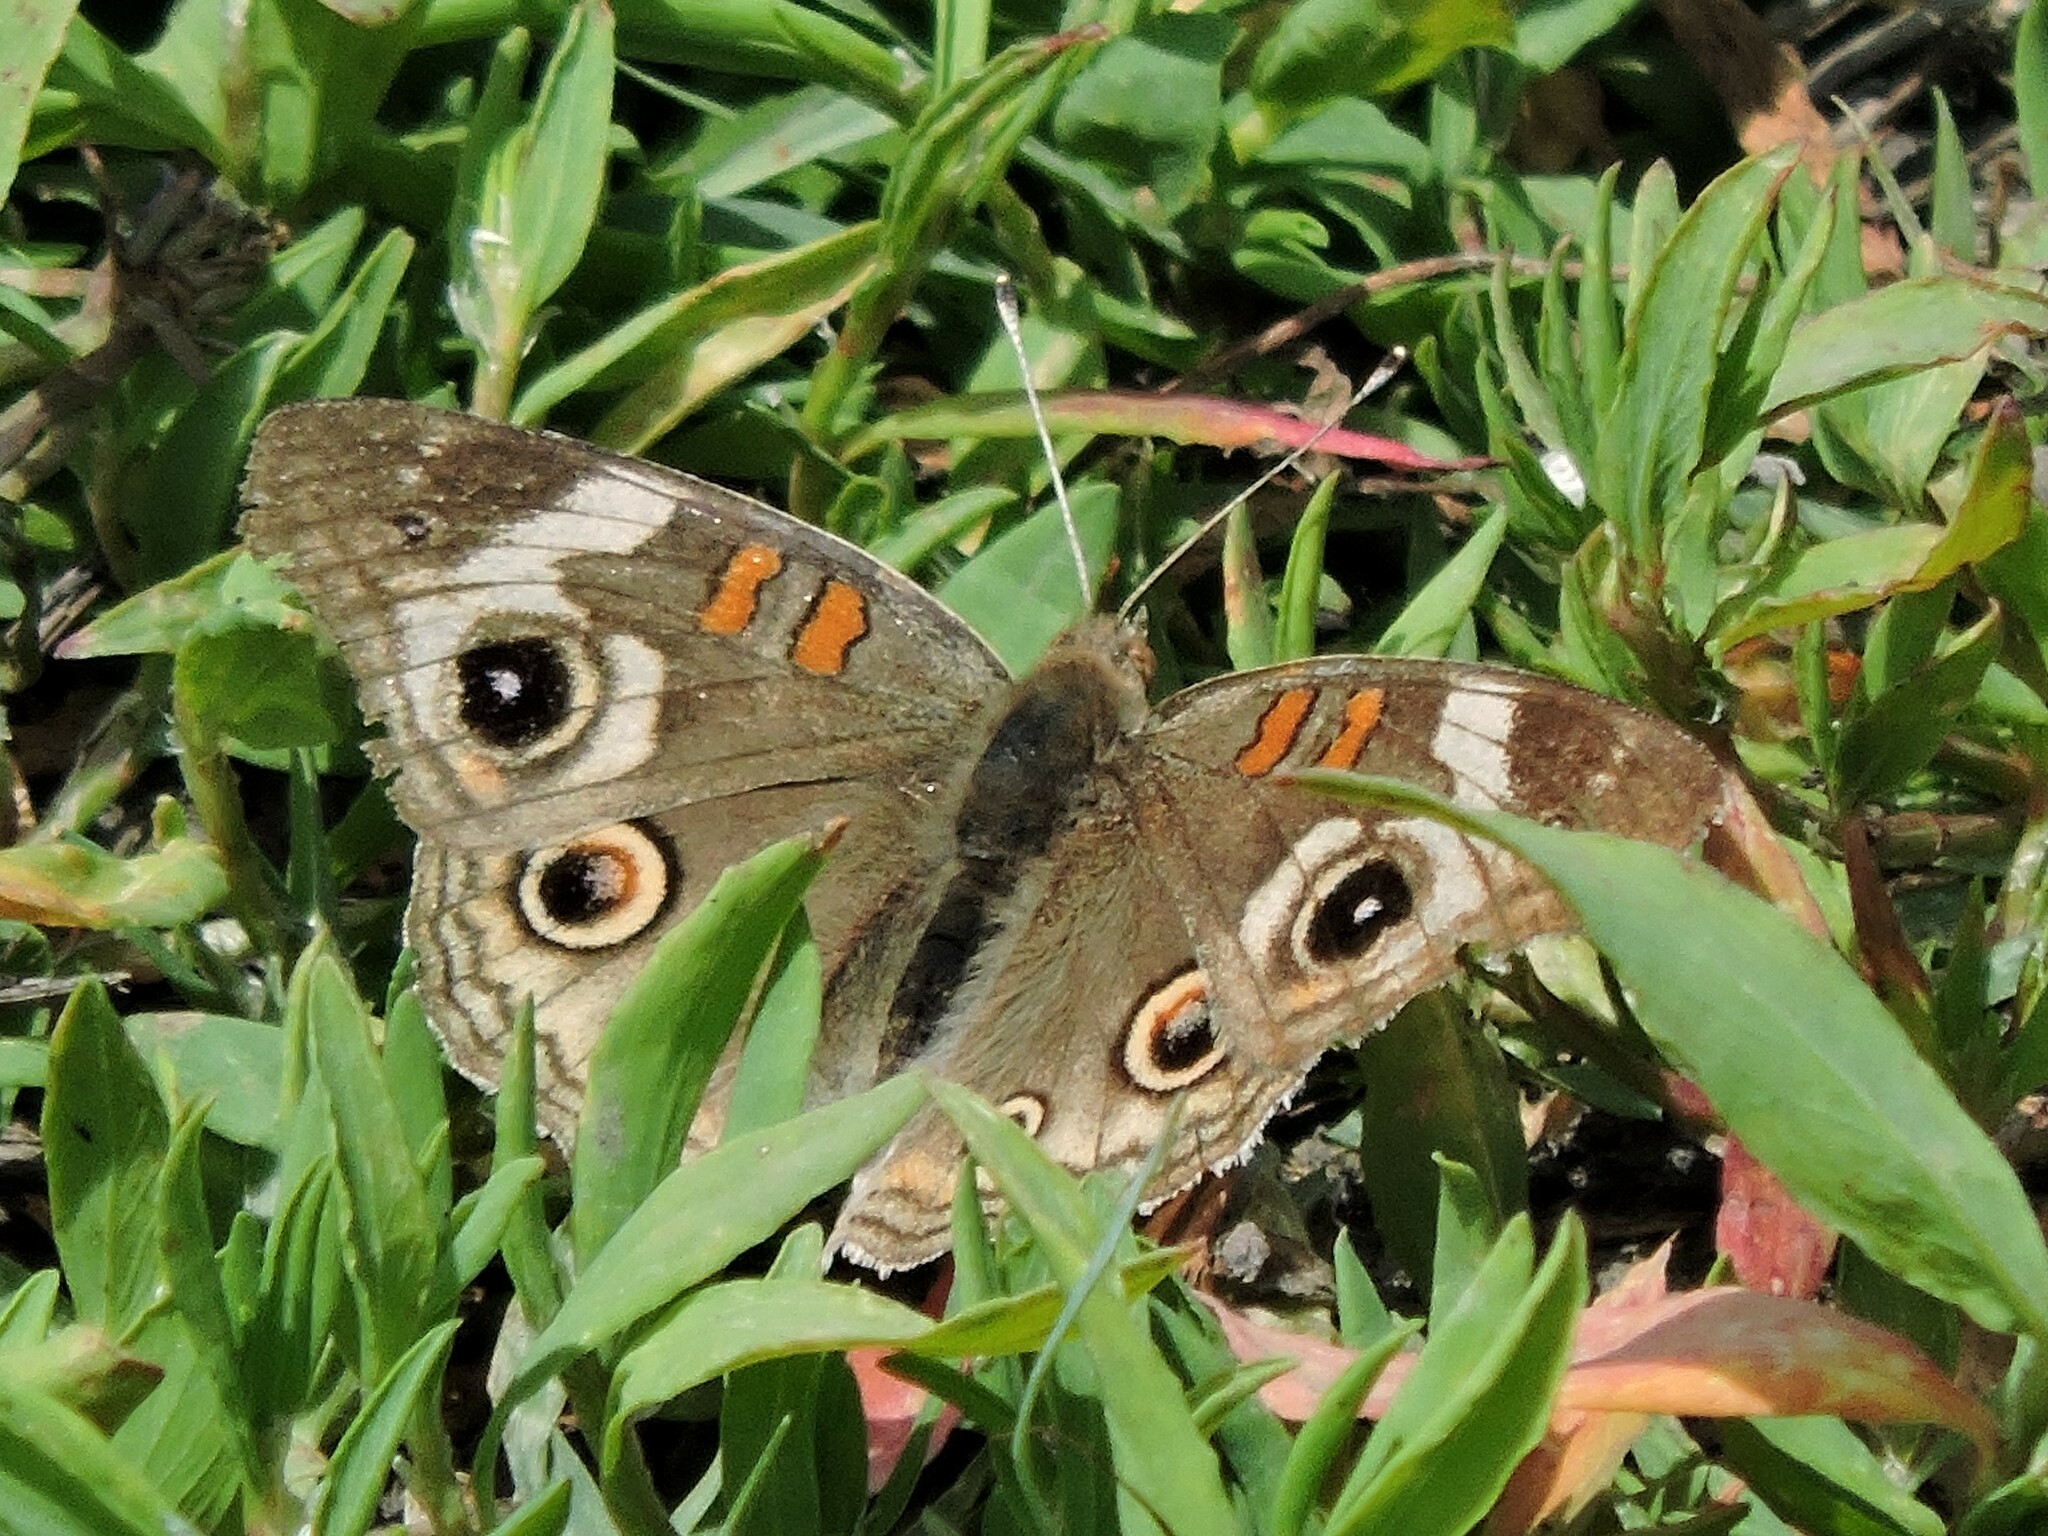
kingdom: Animalia
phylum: Arthropoda
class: Insecta
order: Lepidoptera
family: Nymphalidae
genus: Junonia
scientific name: Junonia grisea
